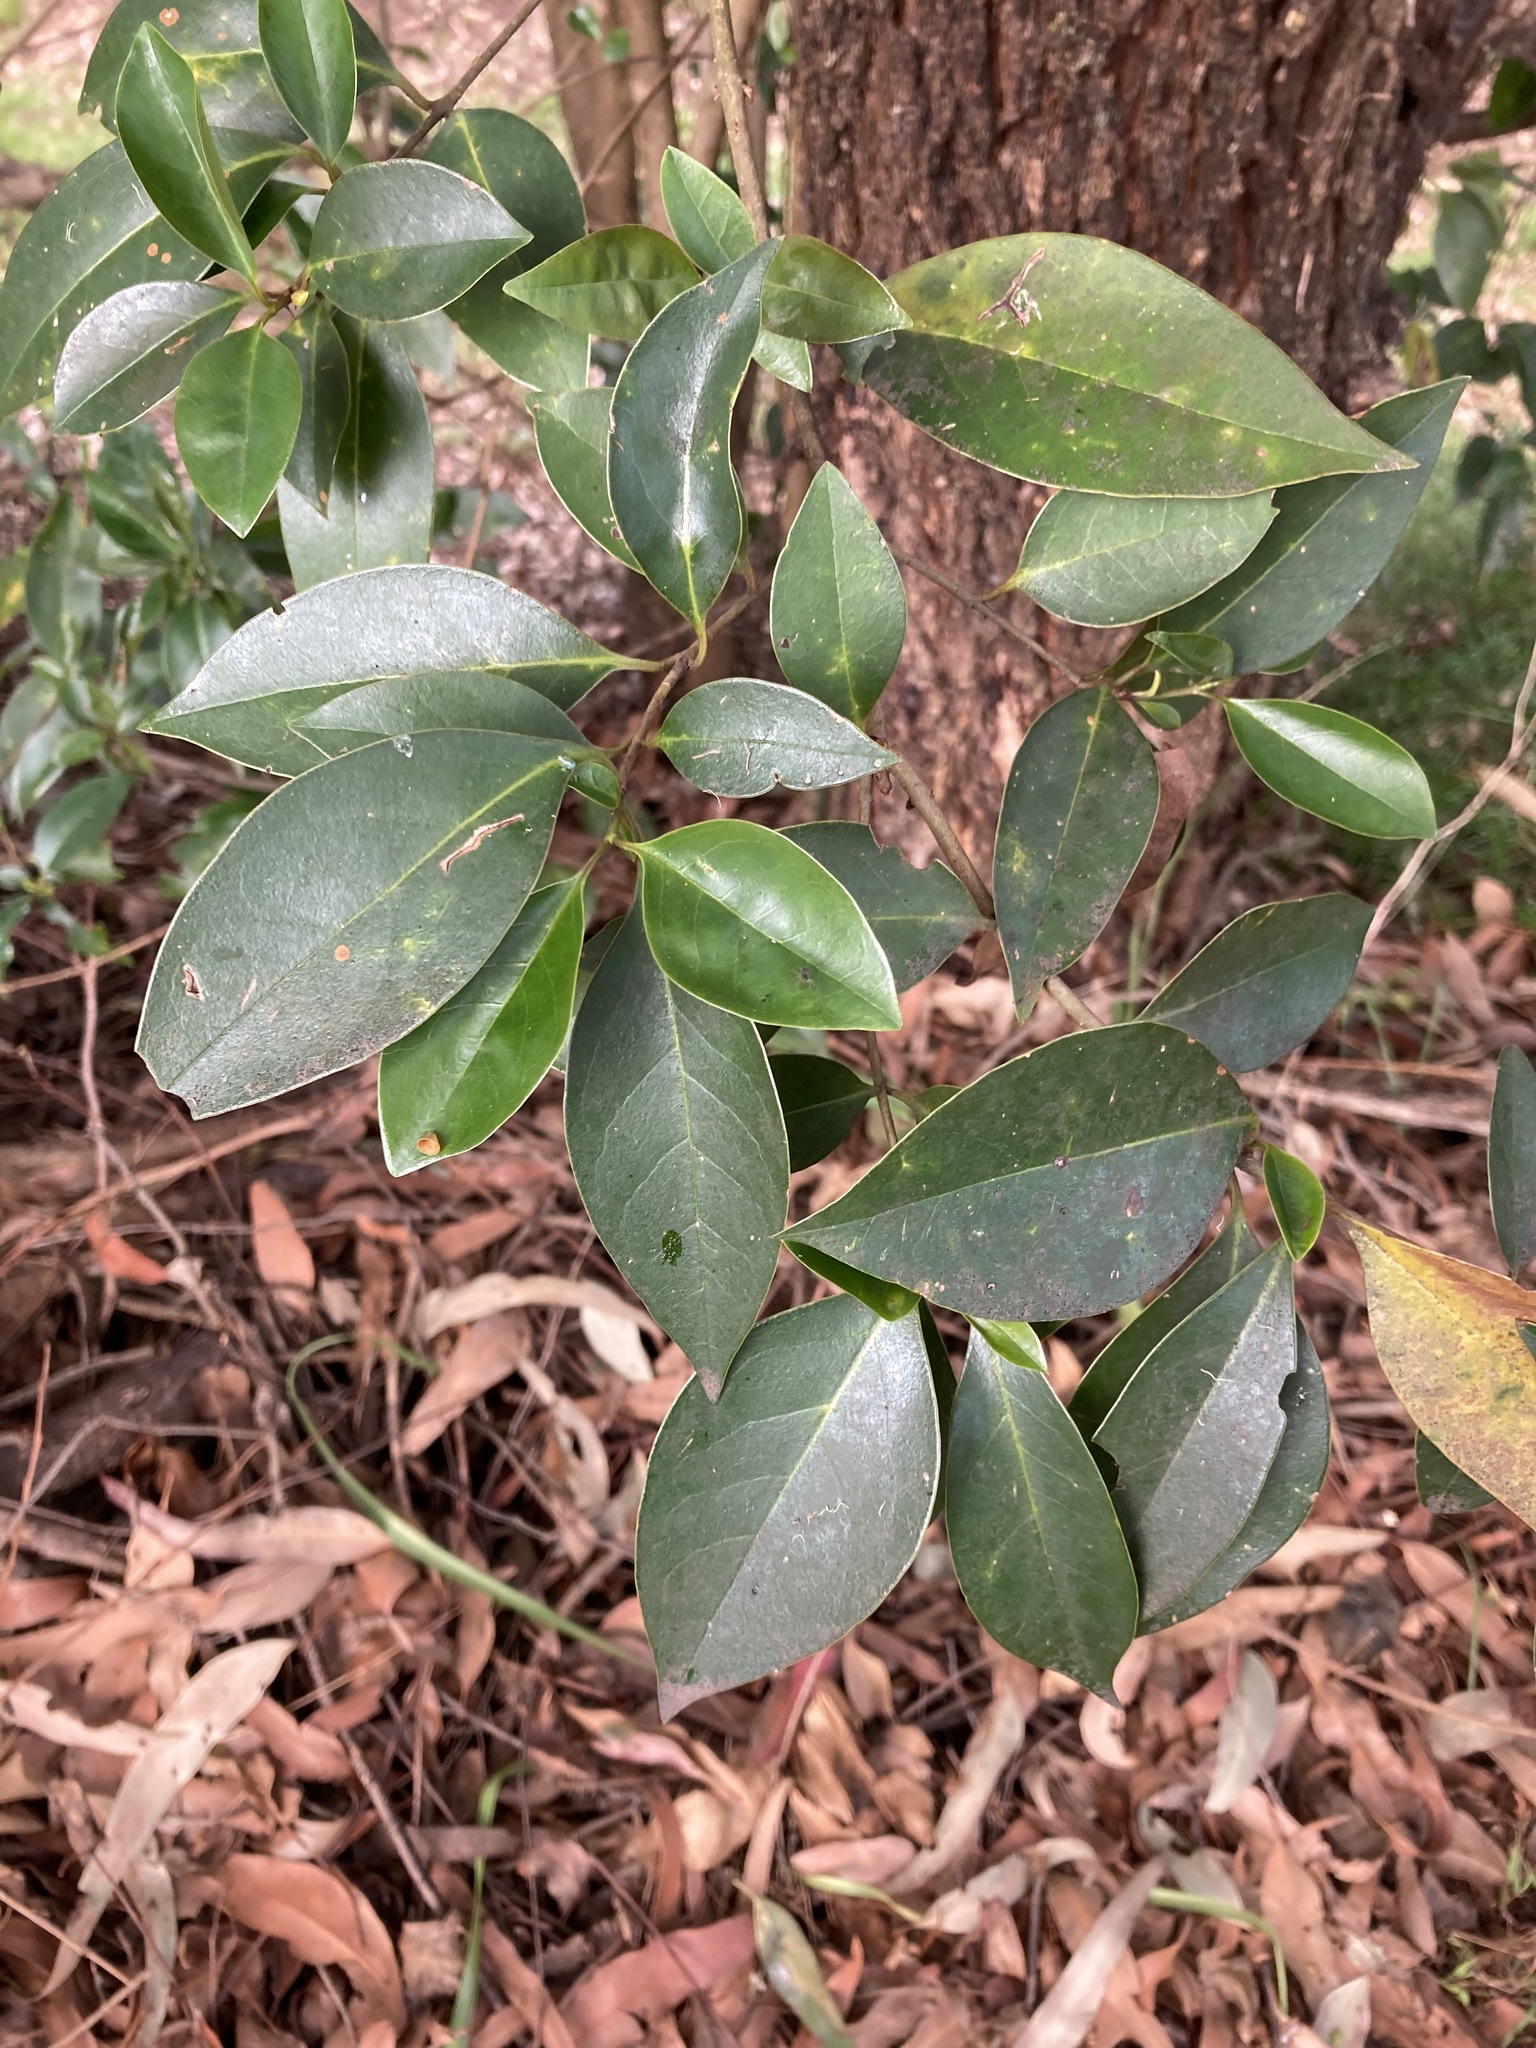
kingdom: Plantae
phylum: Tracheophyta
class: Magnoliopsida
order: Lamiales
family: Oleaceae
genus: Ligustrum
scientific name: Ligustrum lucidum
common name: Glossy privet
